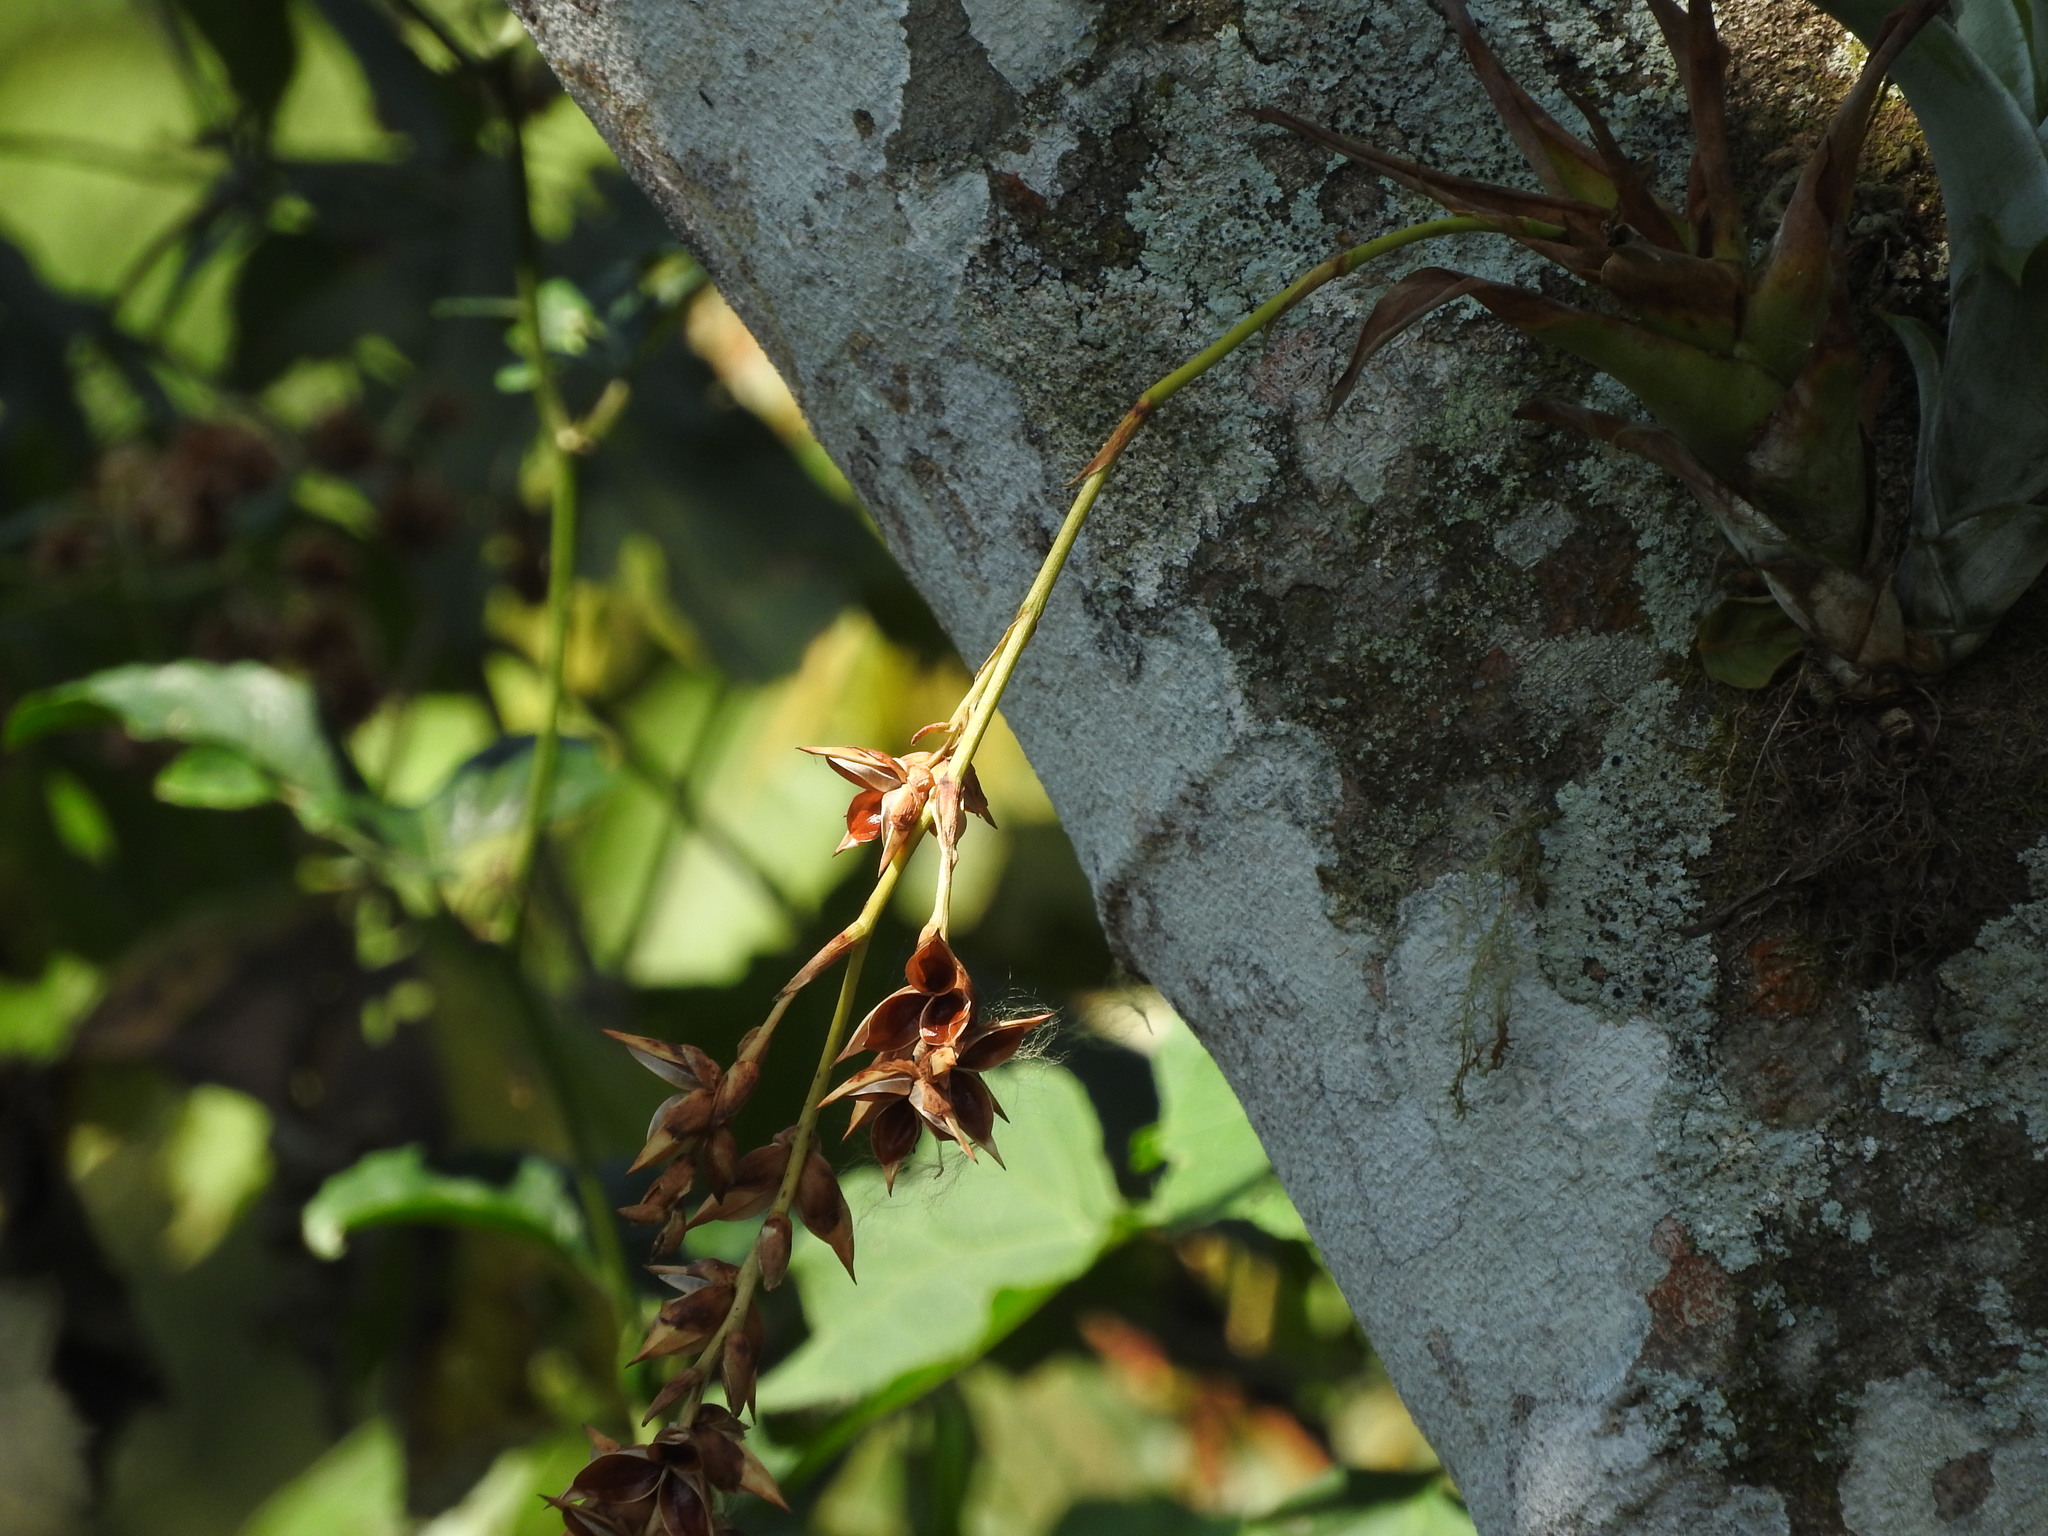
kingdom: Plantae
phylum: Tracheophyta
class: Liliopsida
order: Poales
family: Bromeliaceae
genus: Catopsis
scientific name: Catopsis nutans
